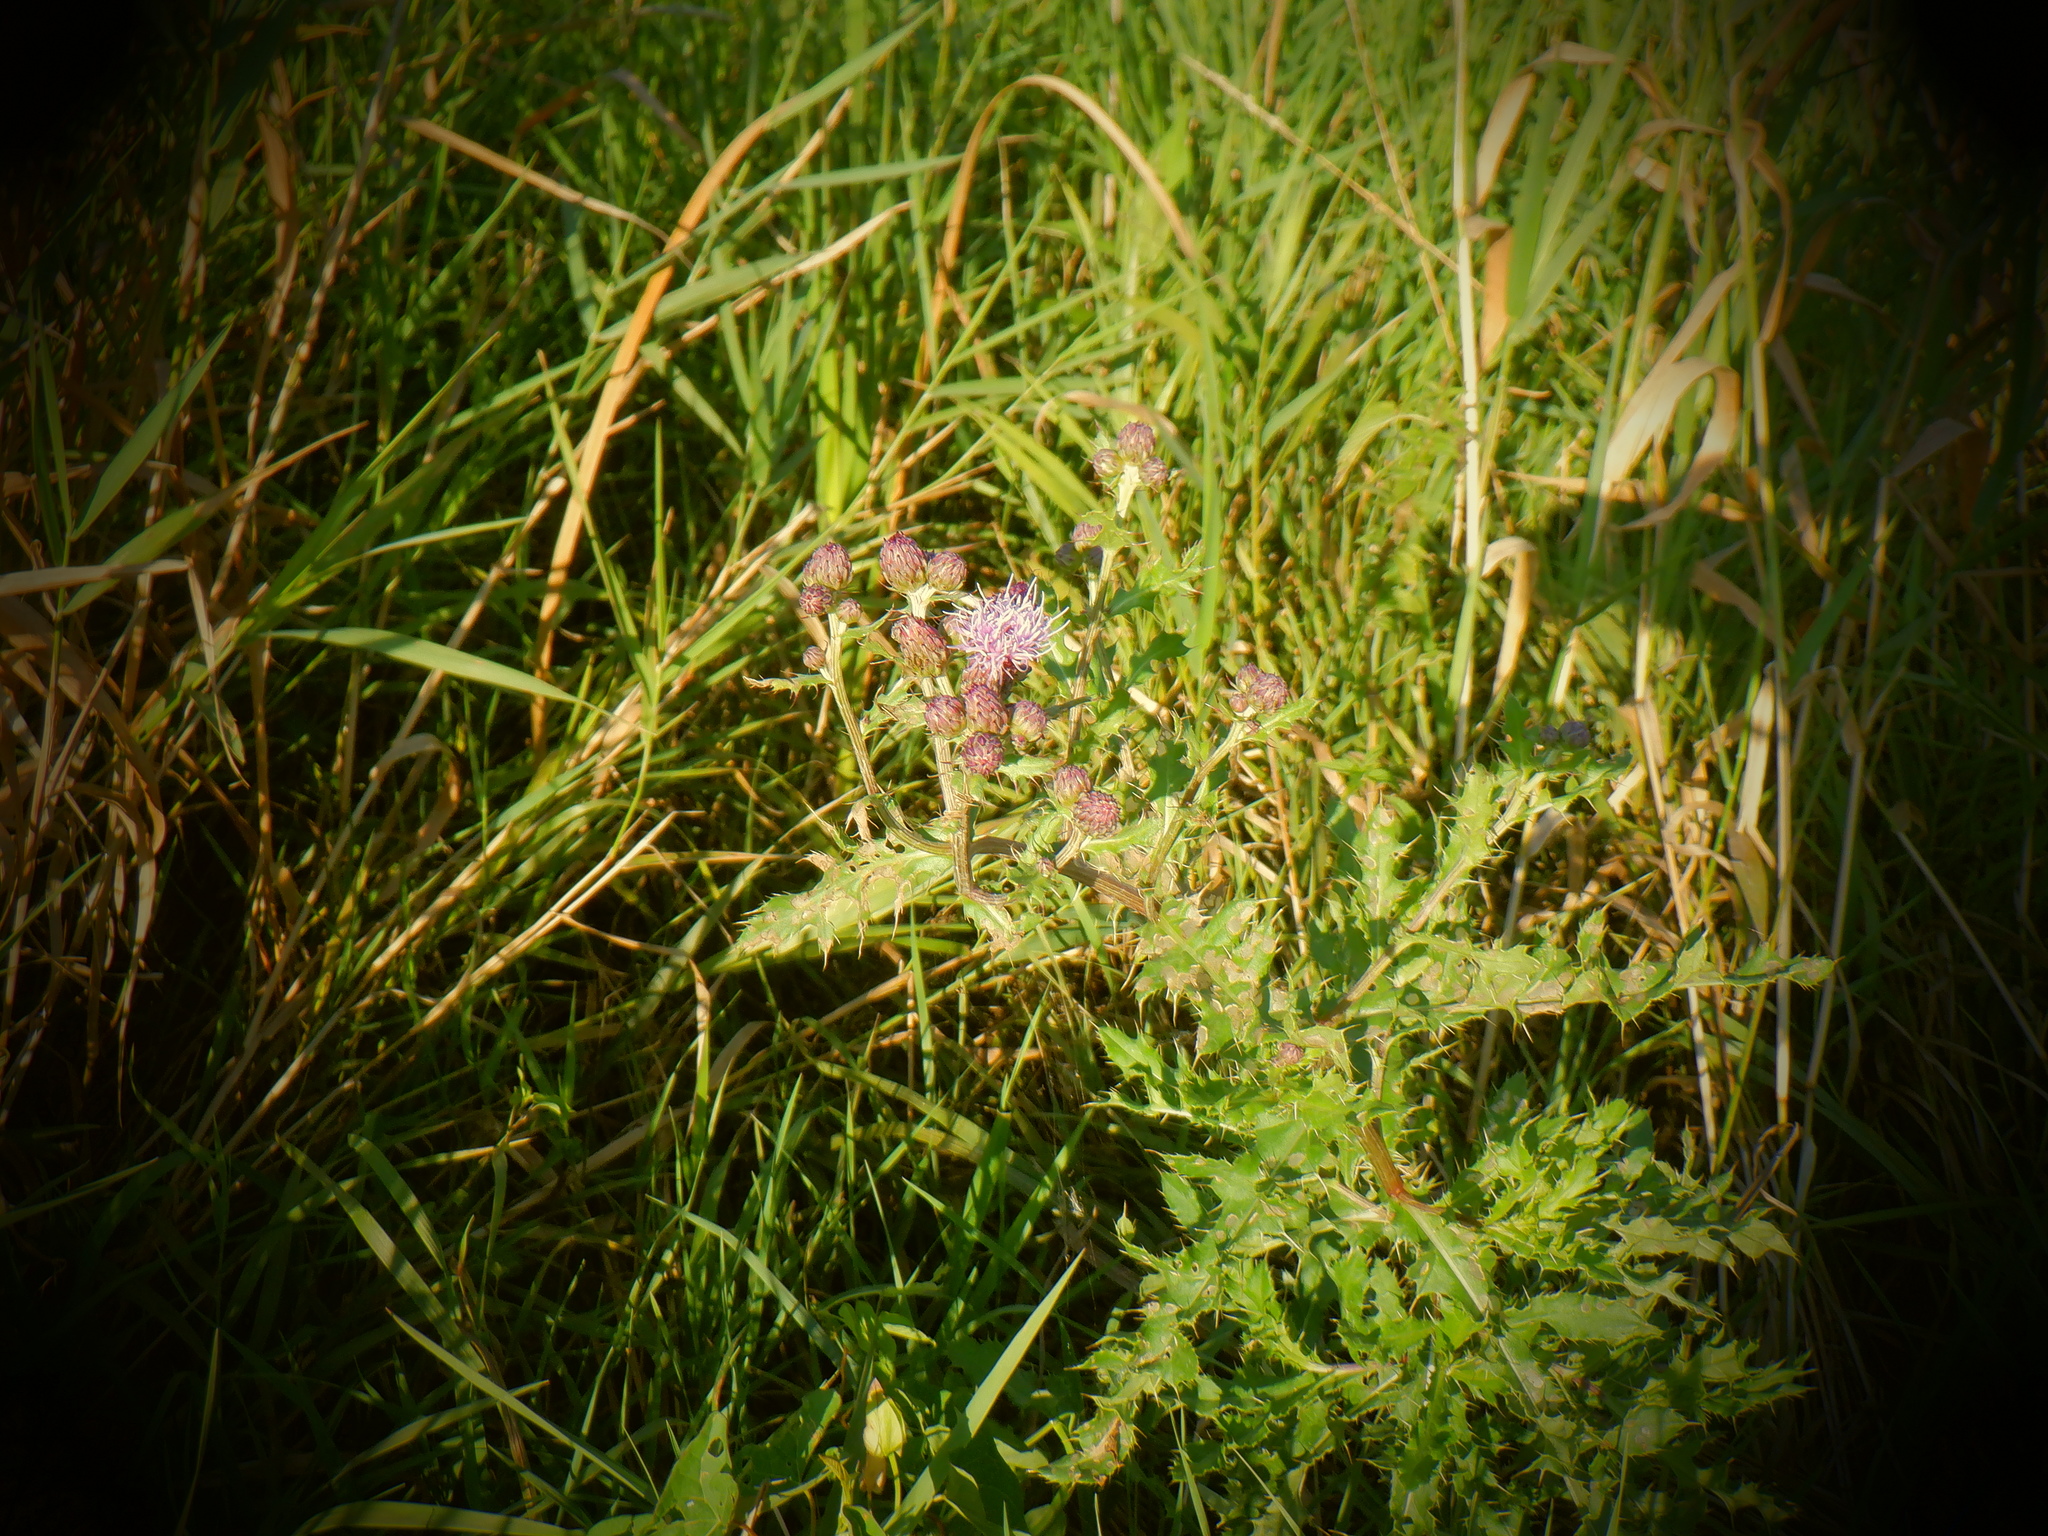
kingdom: Plantae
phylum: Tracheophyta
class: Magnoliopsida
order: Asterales
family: Asteraceae
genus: Cirsium
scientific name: Cirsium arvense
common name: Creeping thistle
